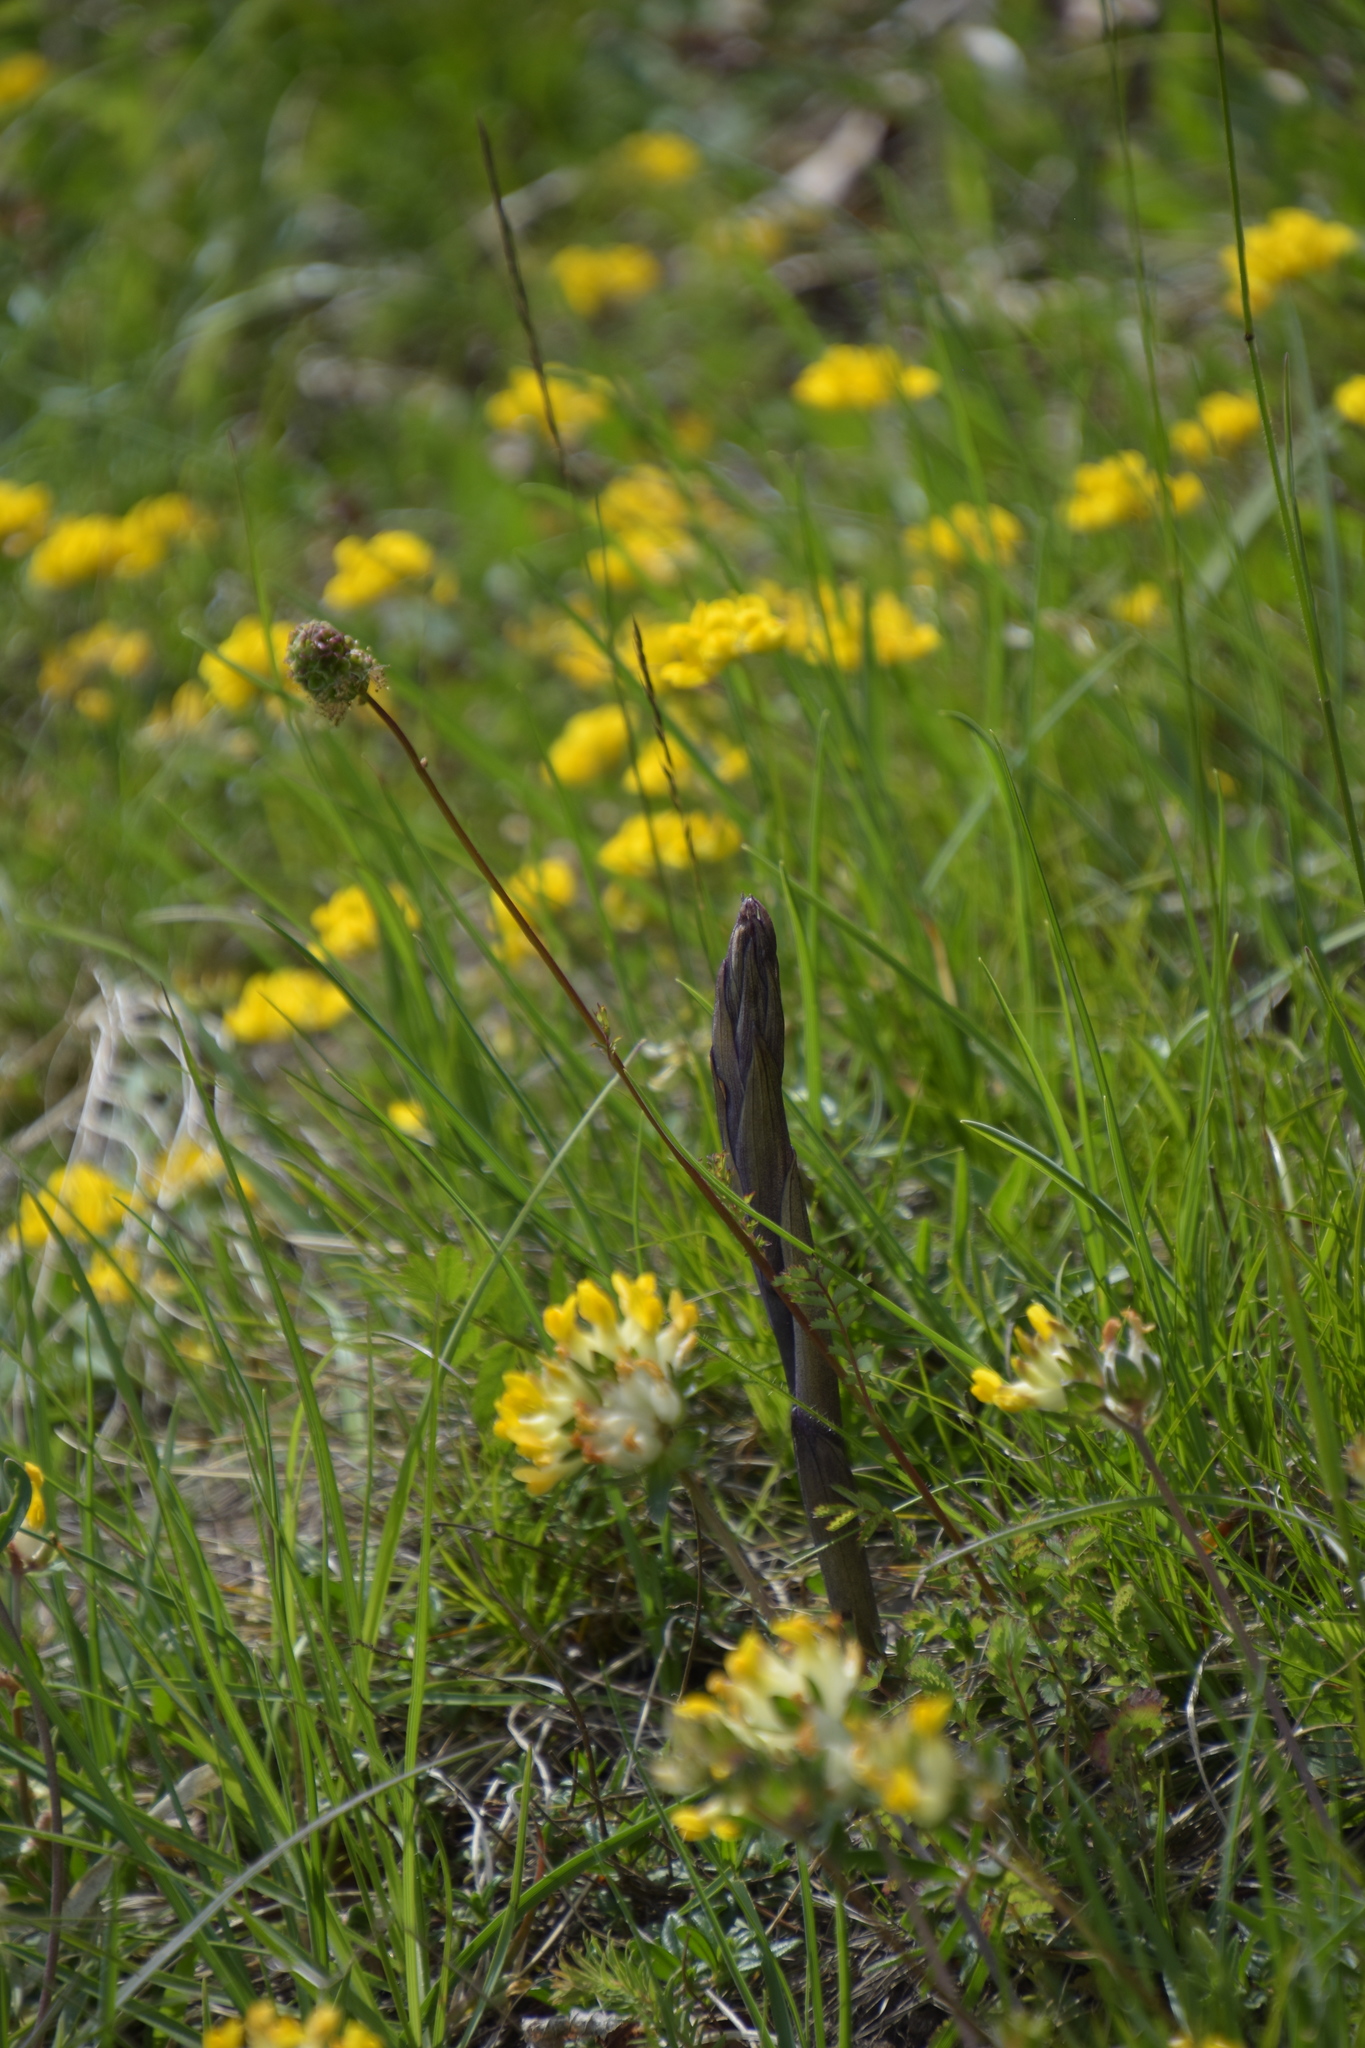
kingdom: Plantae
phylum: Tracheophyta
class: Liliopsida
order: Asparagales
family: Orchidaceae
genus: Limodorum
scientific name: Limodorum abortivum
